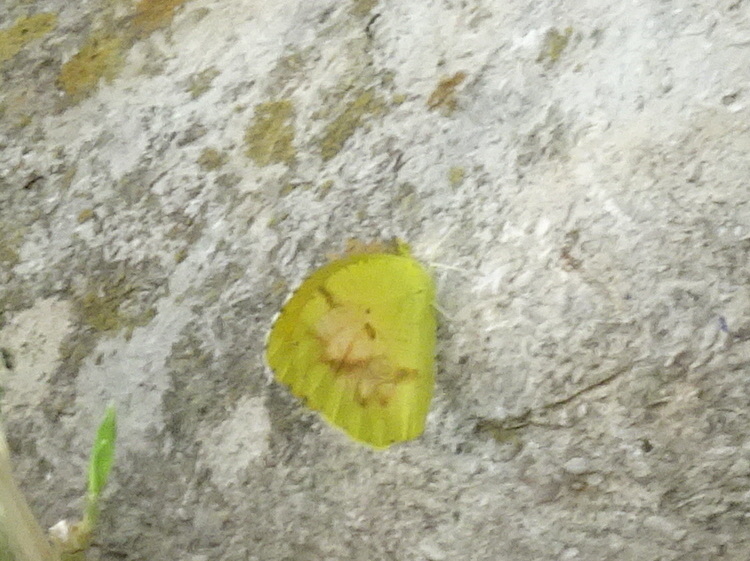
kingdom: Animalia
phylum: Arthropoda
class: Insecta
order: Lepidoptera
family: Pieridae
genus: Abaeis
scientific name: Abaeis nicippe
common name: Sleepy orange
